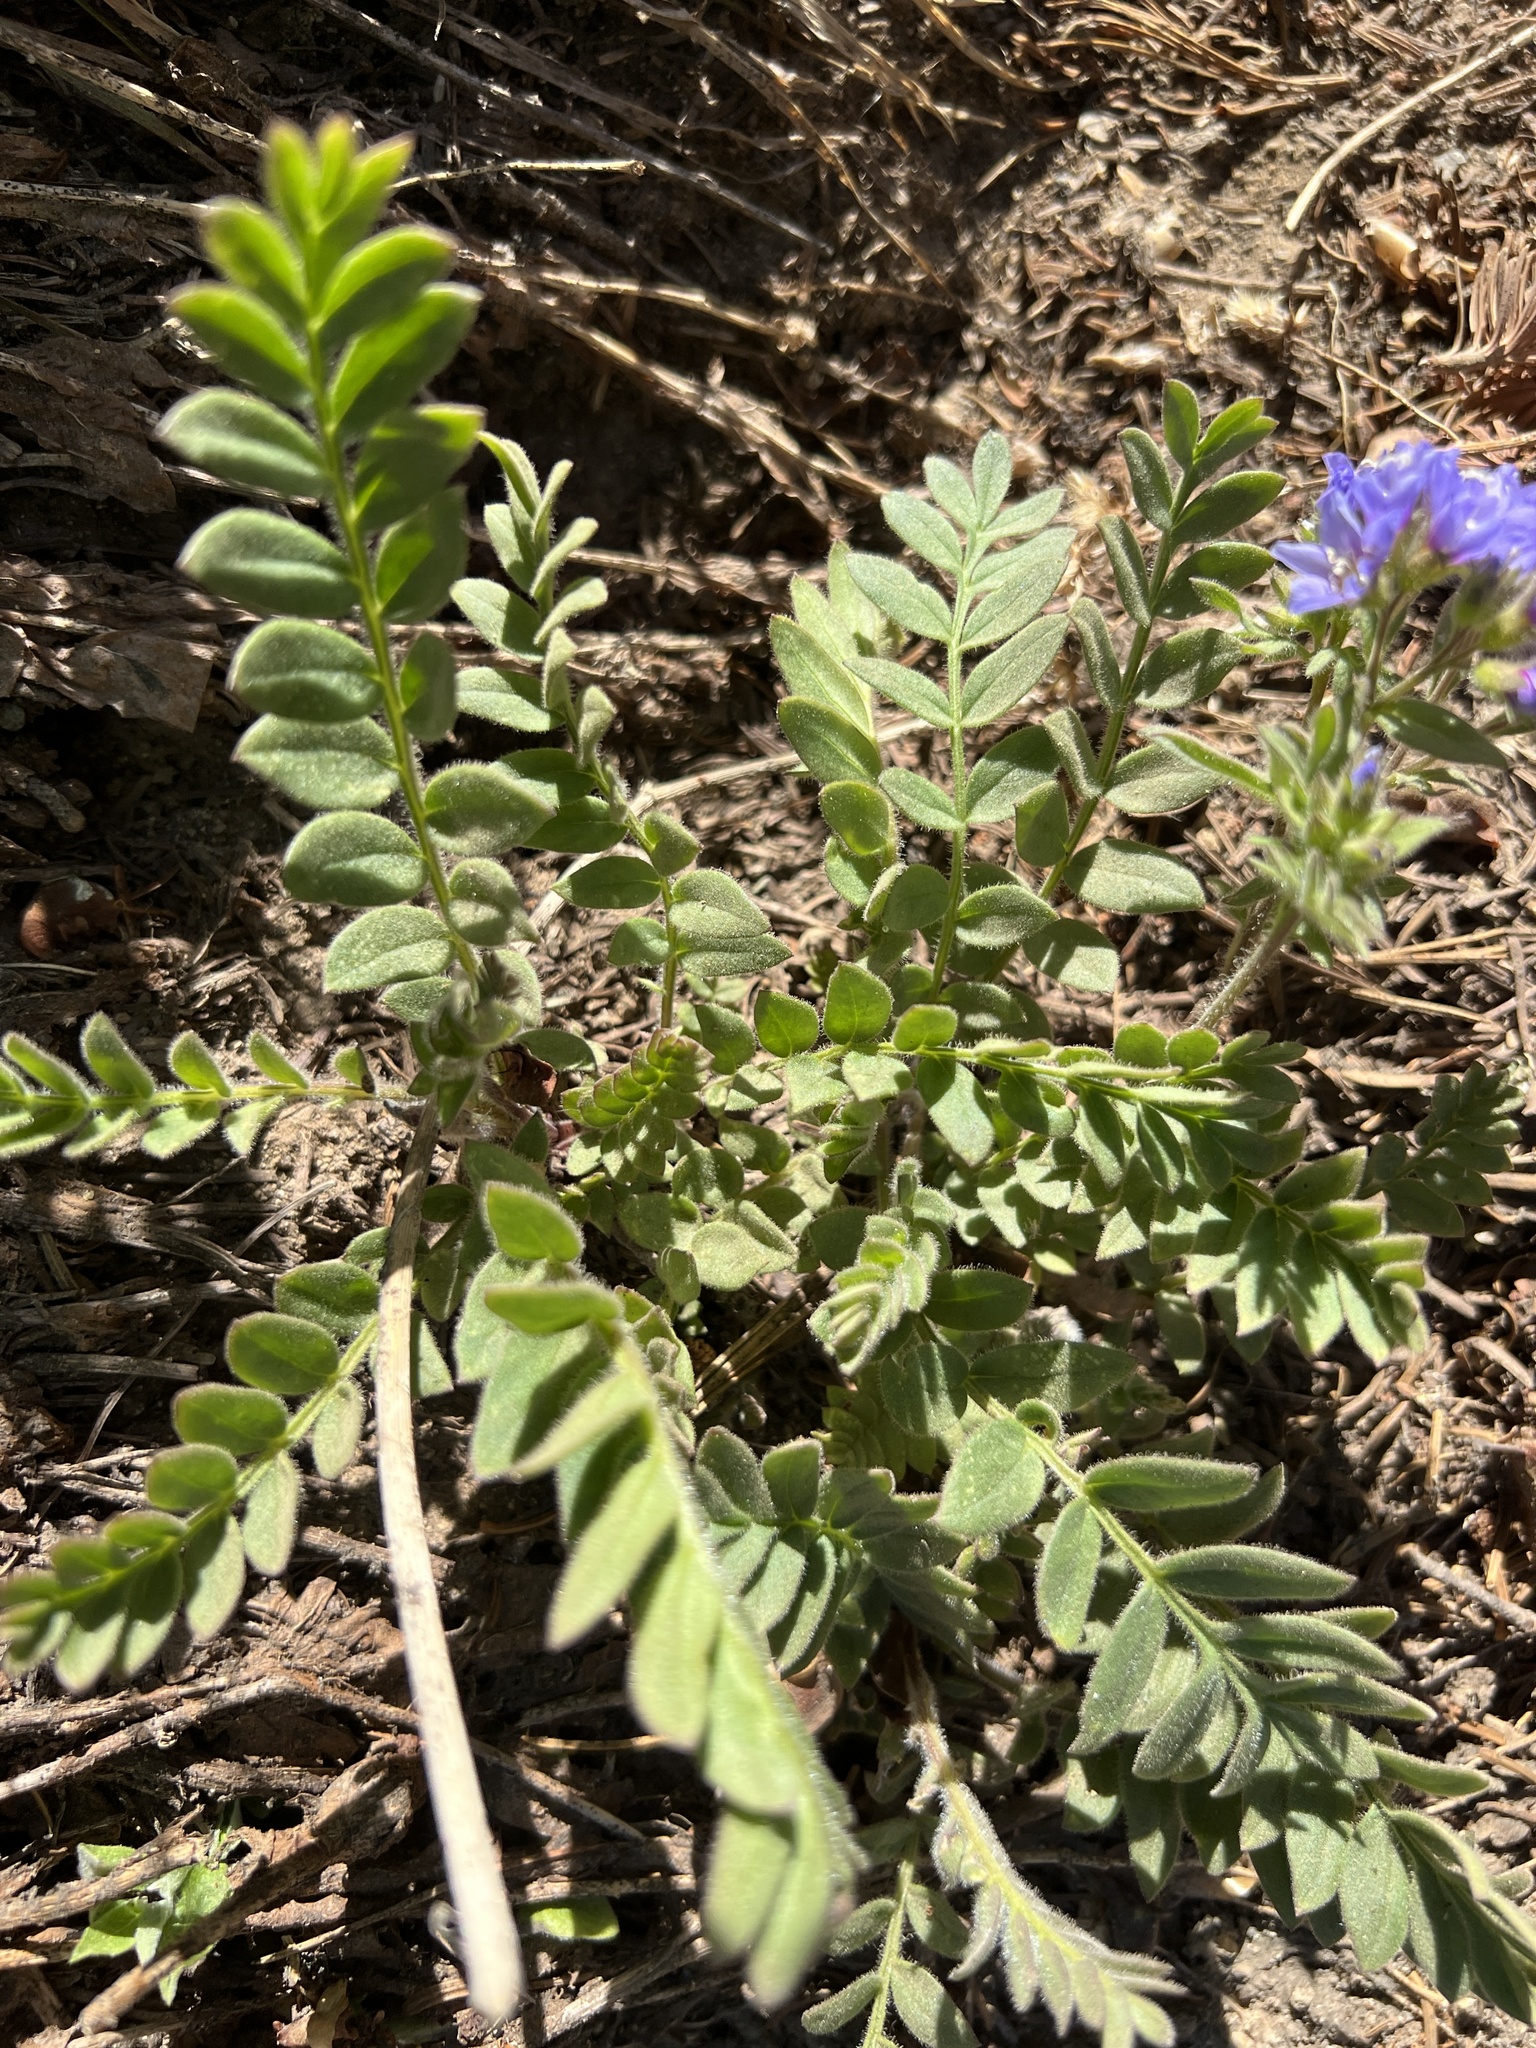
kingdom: Plantae
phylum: Tracheophyta
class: Magnoliopsida
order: Ericales
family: Polemoniaceae
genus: Polemonium
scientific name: Polemonium californicum
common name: California jacob's ladder
